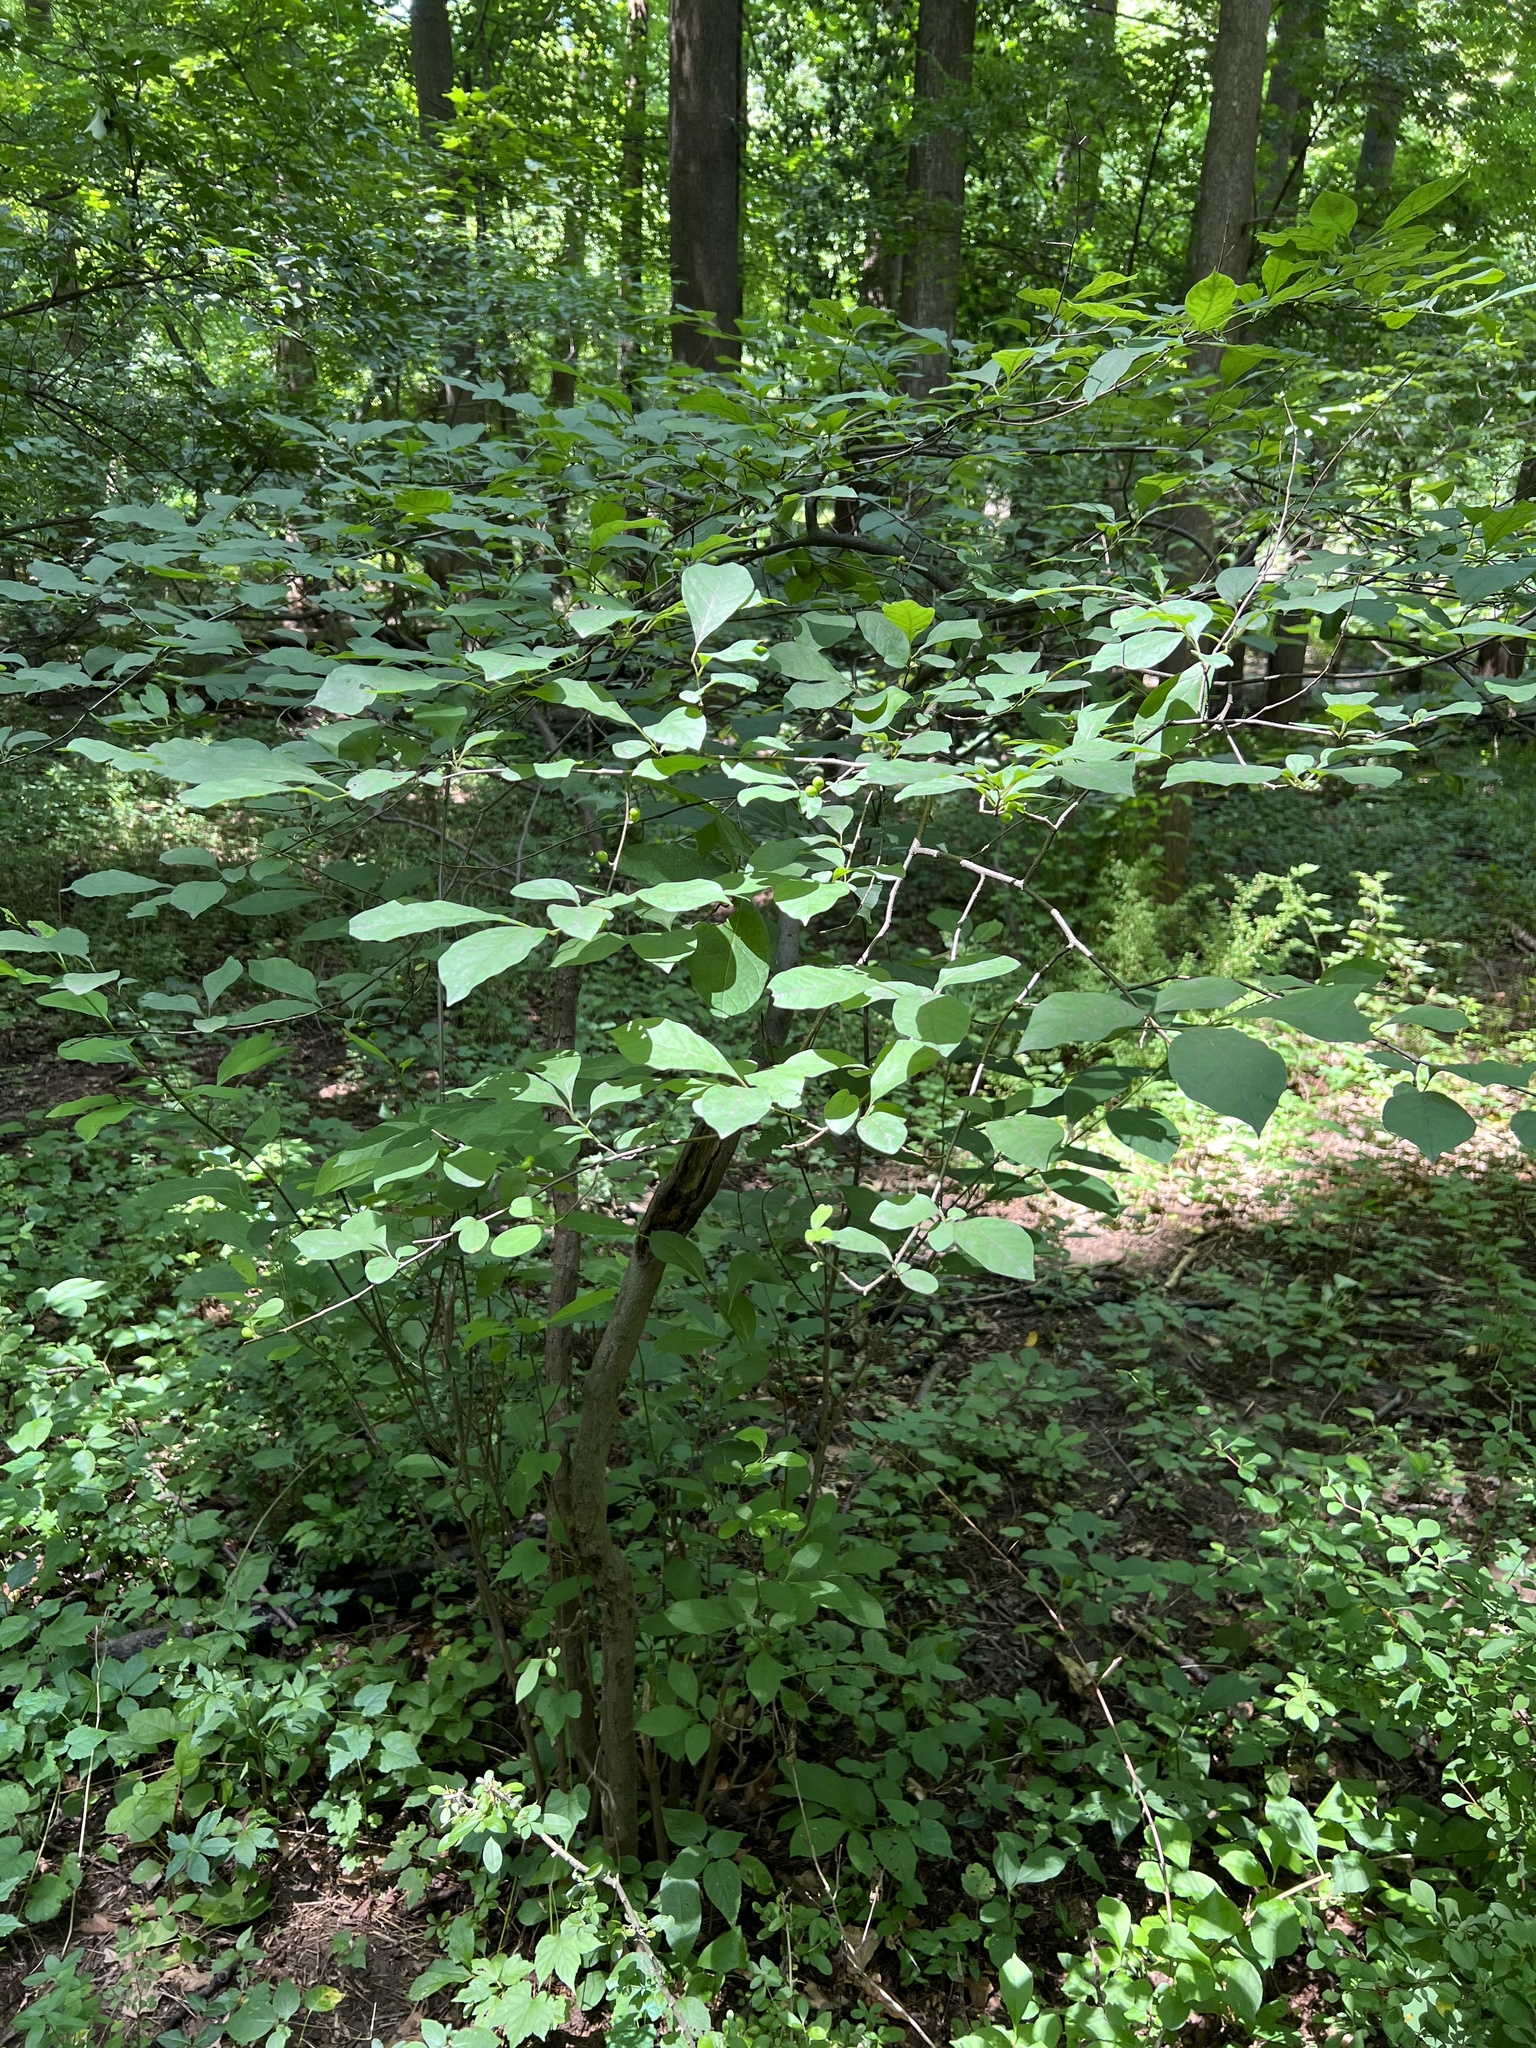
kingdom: Plantae
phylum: Tracheophyta
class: Magnoliopsida
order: Laurales
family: Lauraceae
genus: Lindera
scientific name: Lindera benzoin
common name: Spicebush
